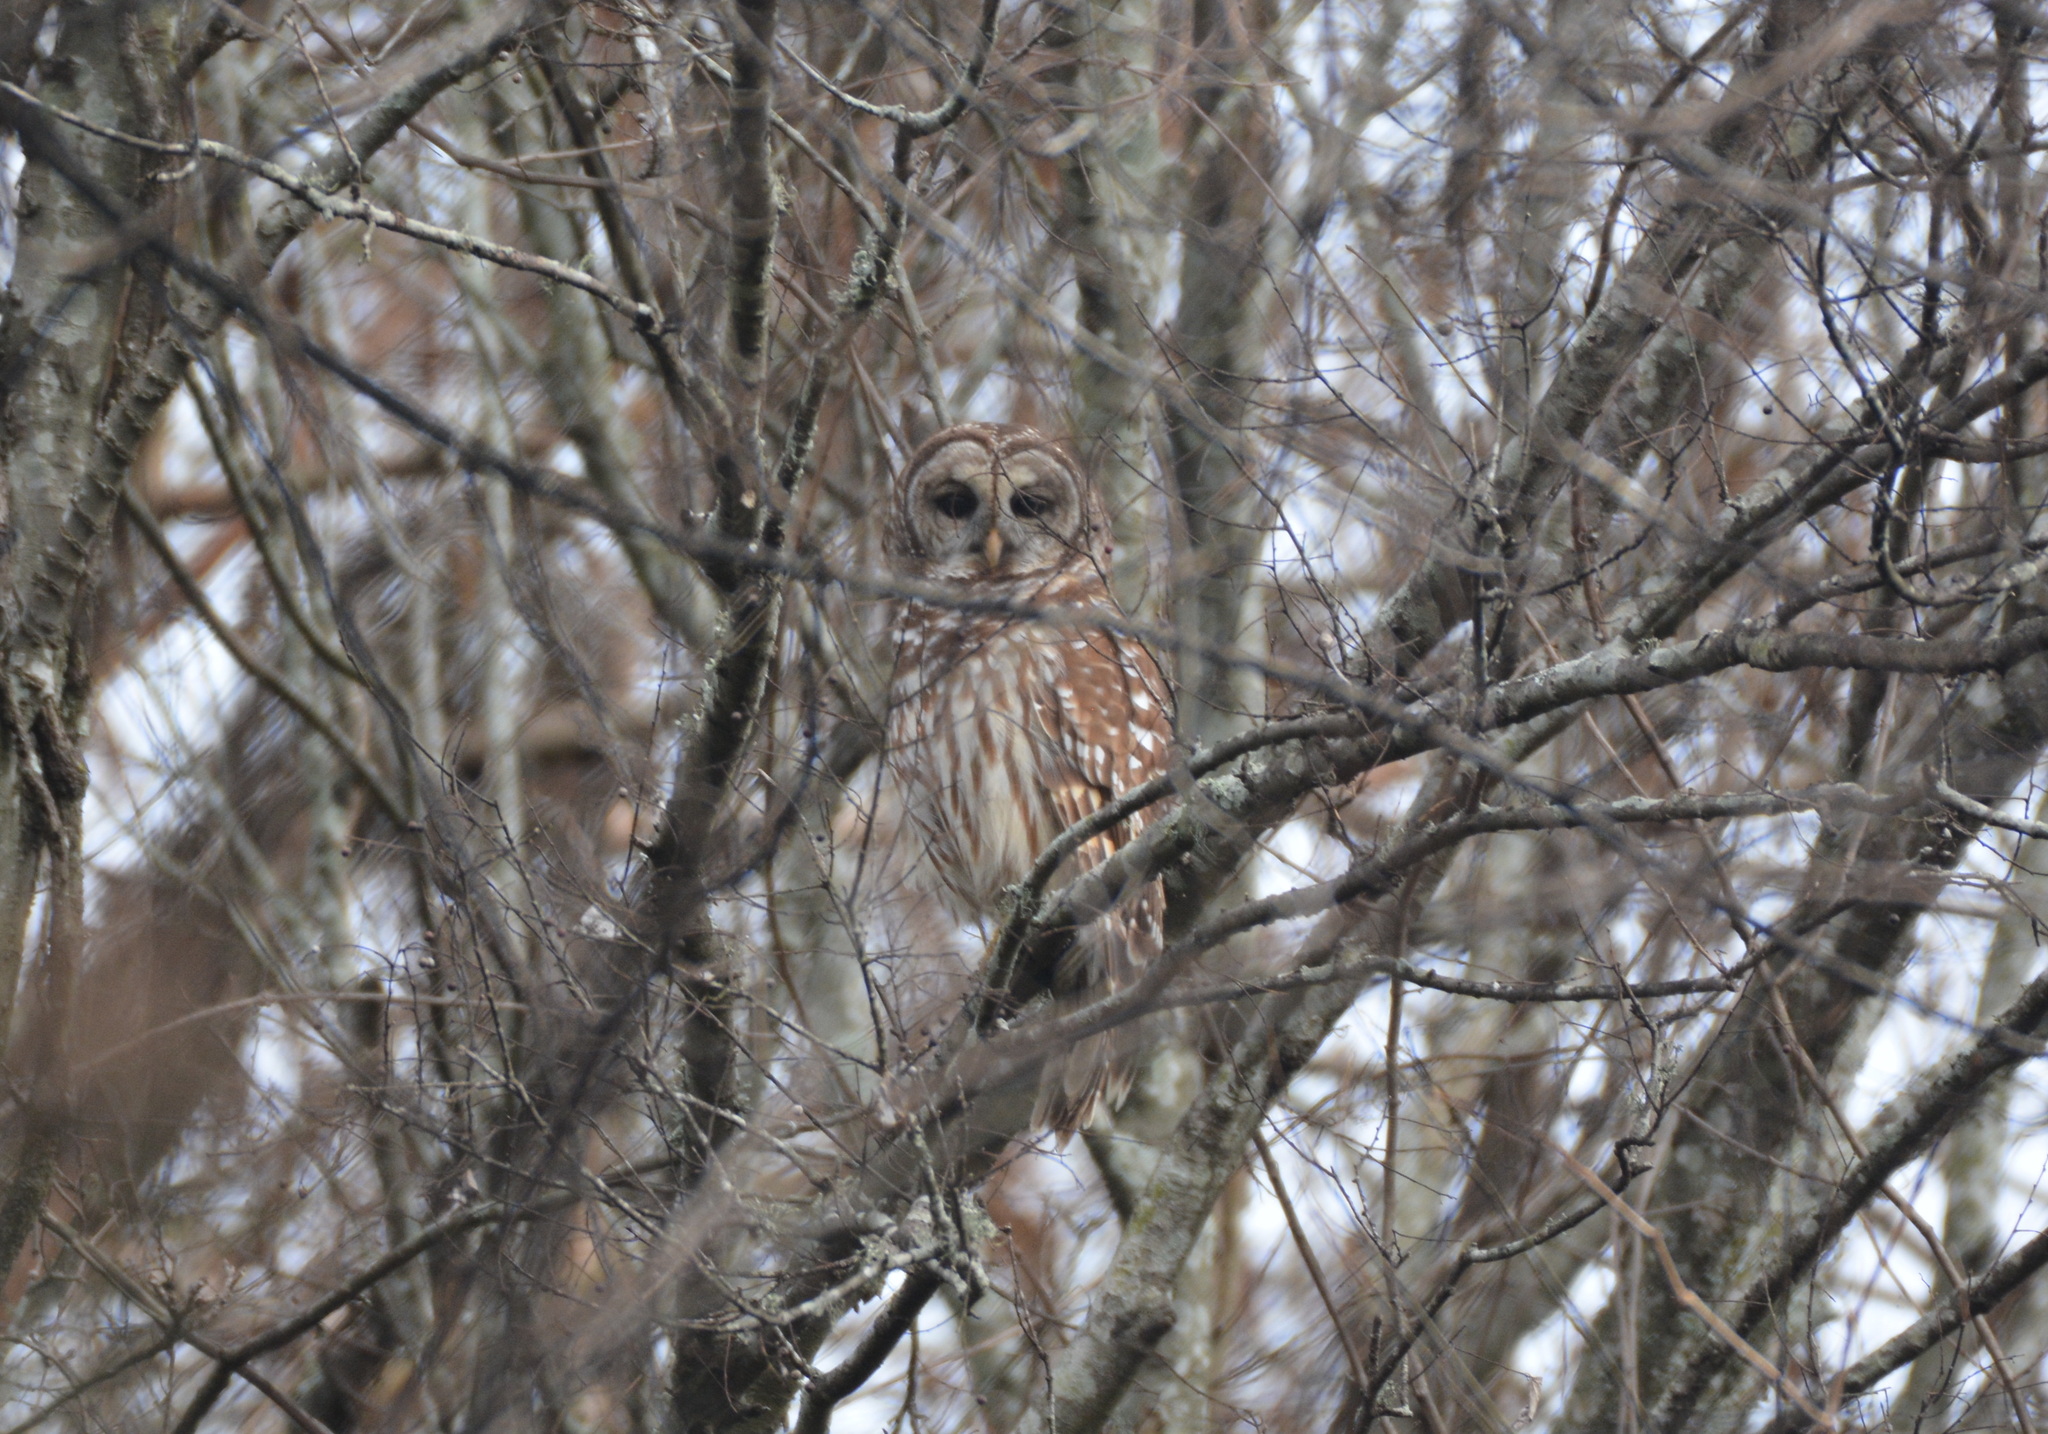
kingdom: Animalia
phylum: Chordata
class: Aves
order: Strigiformes
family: Strigidae
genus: Strix
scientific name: Strix varia
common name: Barred owl
